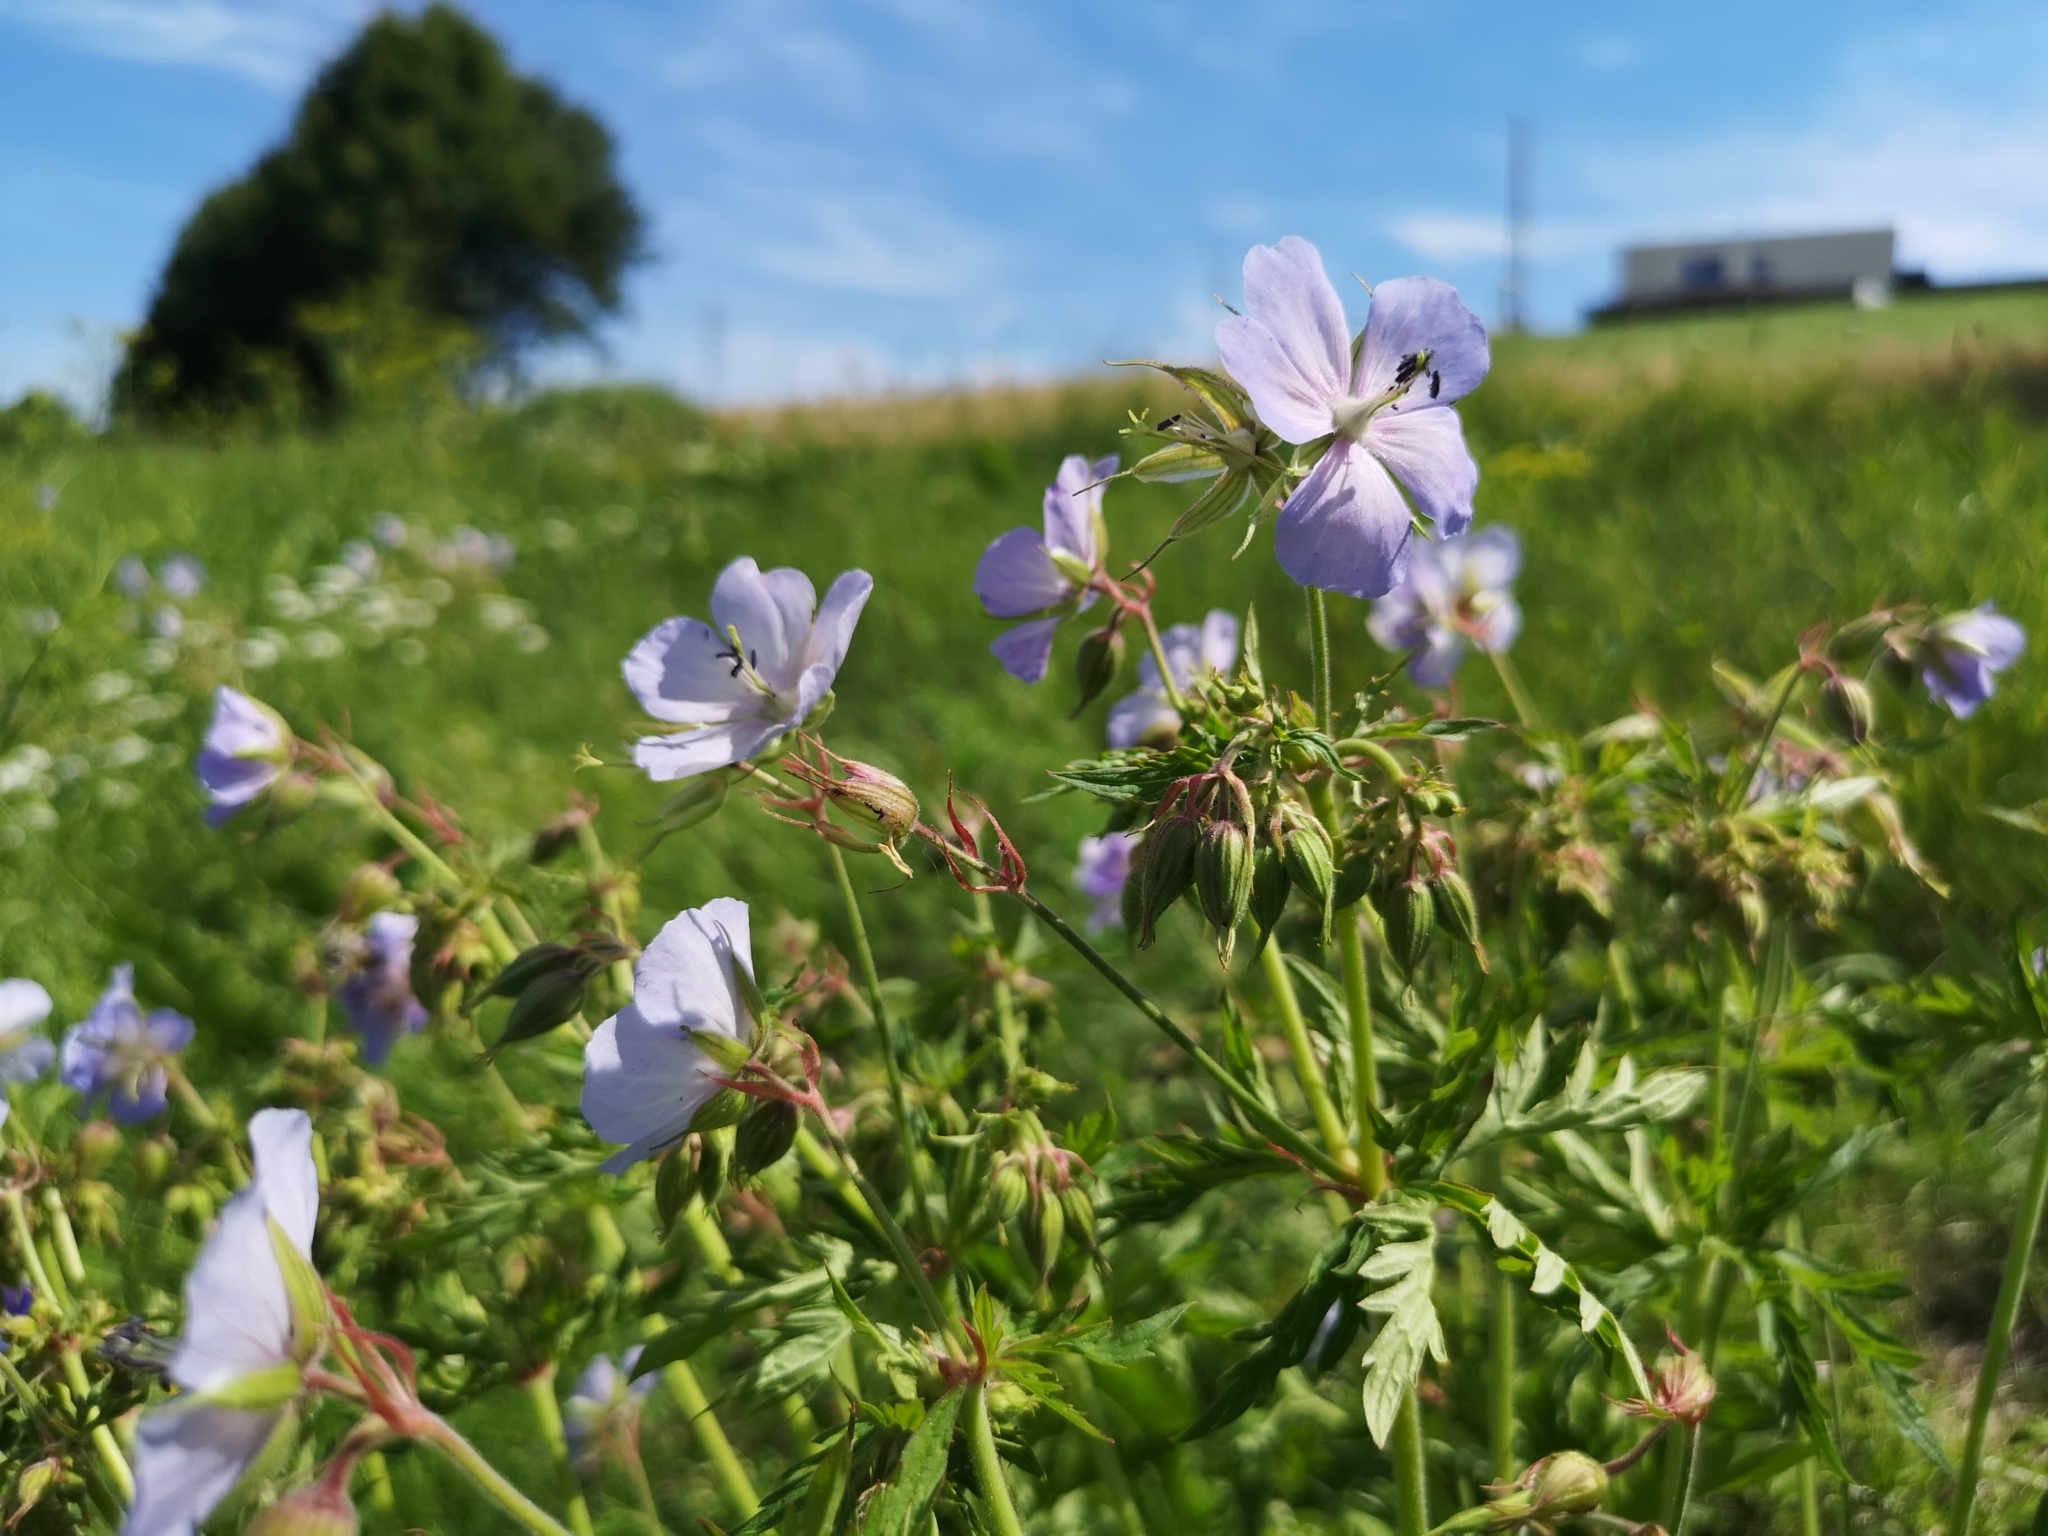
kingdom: Plantae
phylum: Tracheophyta
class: Magnoliopsida
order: Geraniales
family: Geraniaceae
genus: Geranium
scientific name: Geranium pratense
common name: Meadow crane's-bill
